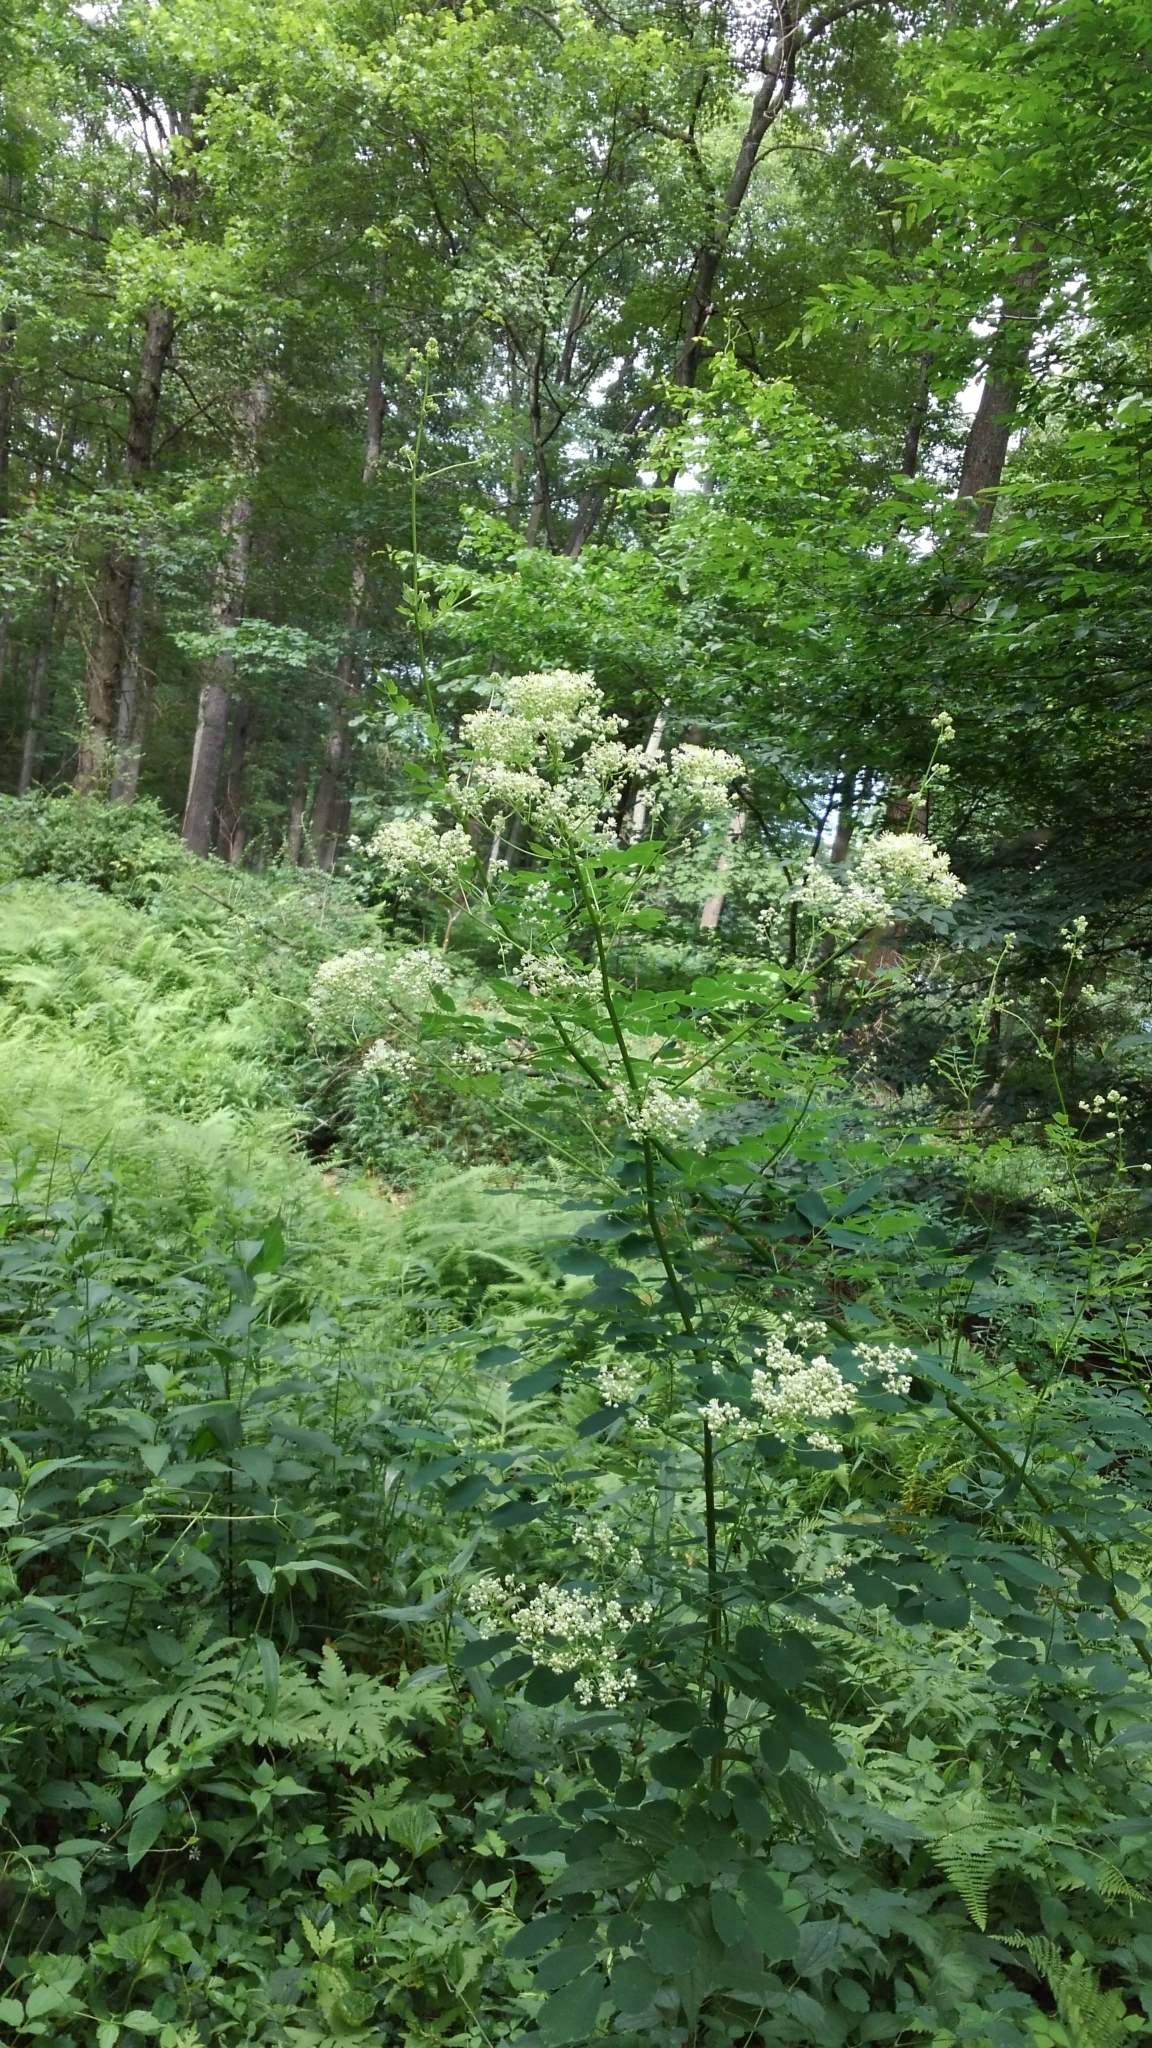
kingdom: Plantae
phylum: Tracheophyta
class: Magnoliopsida
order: Ranunculales
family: Ranunculaceae
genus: Thalictrum
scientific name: Thalictrum pubescens
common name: King-of-the-meadow
